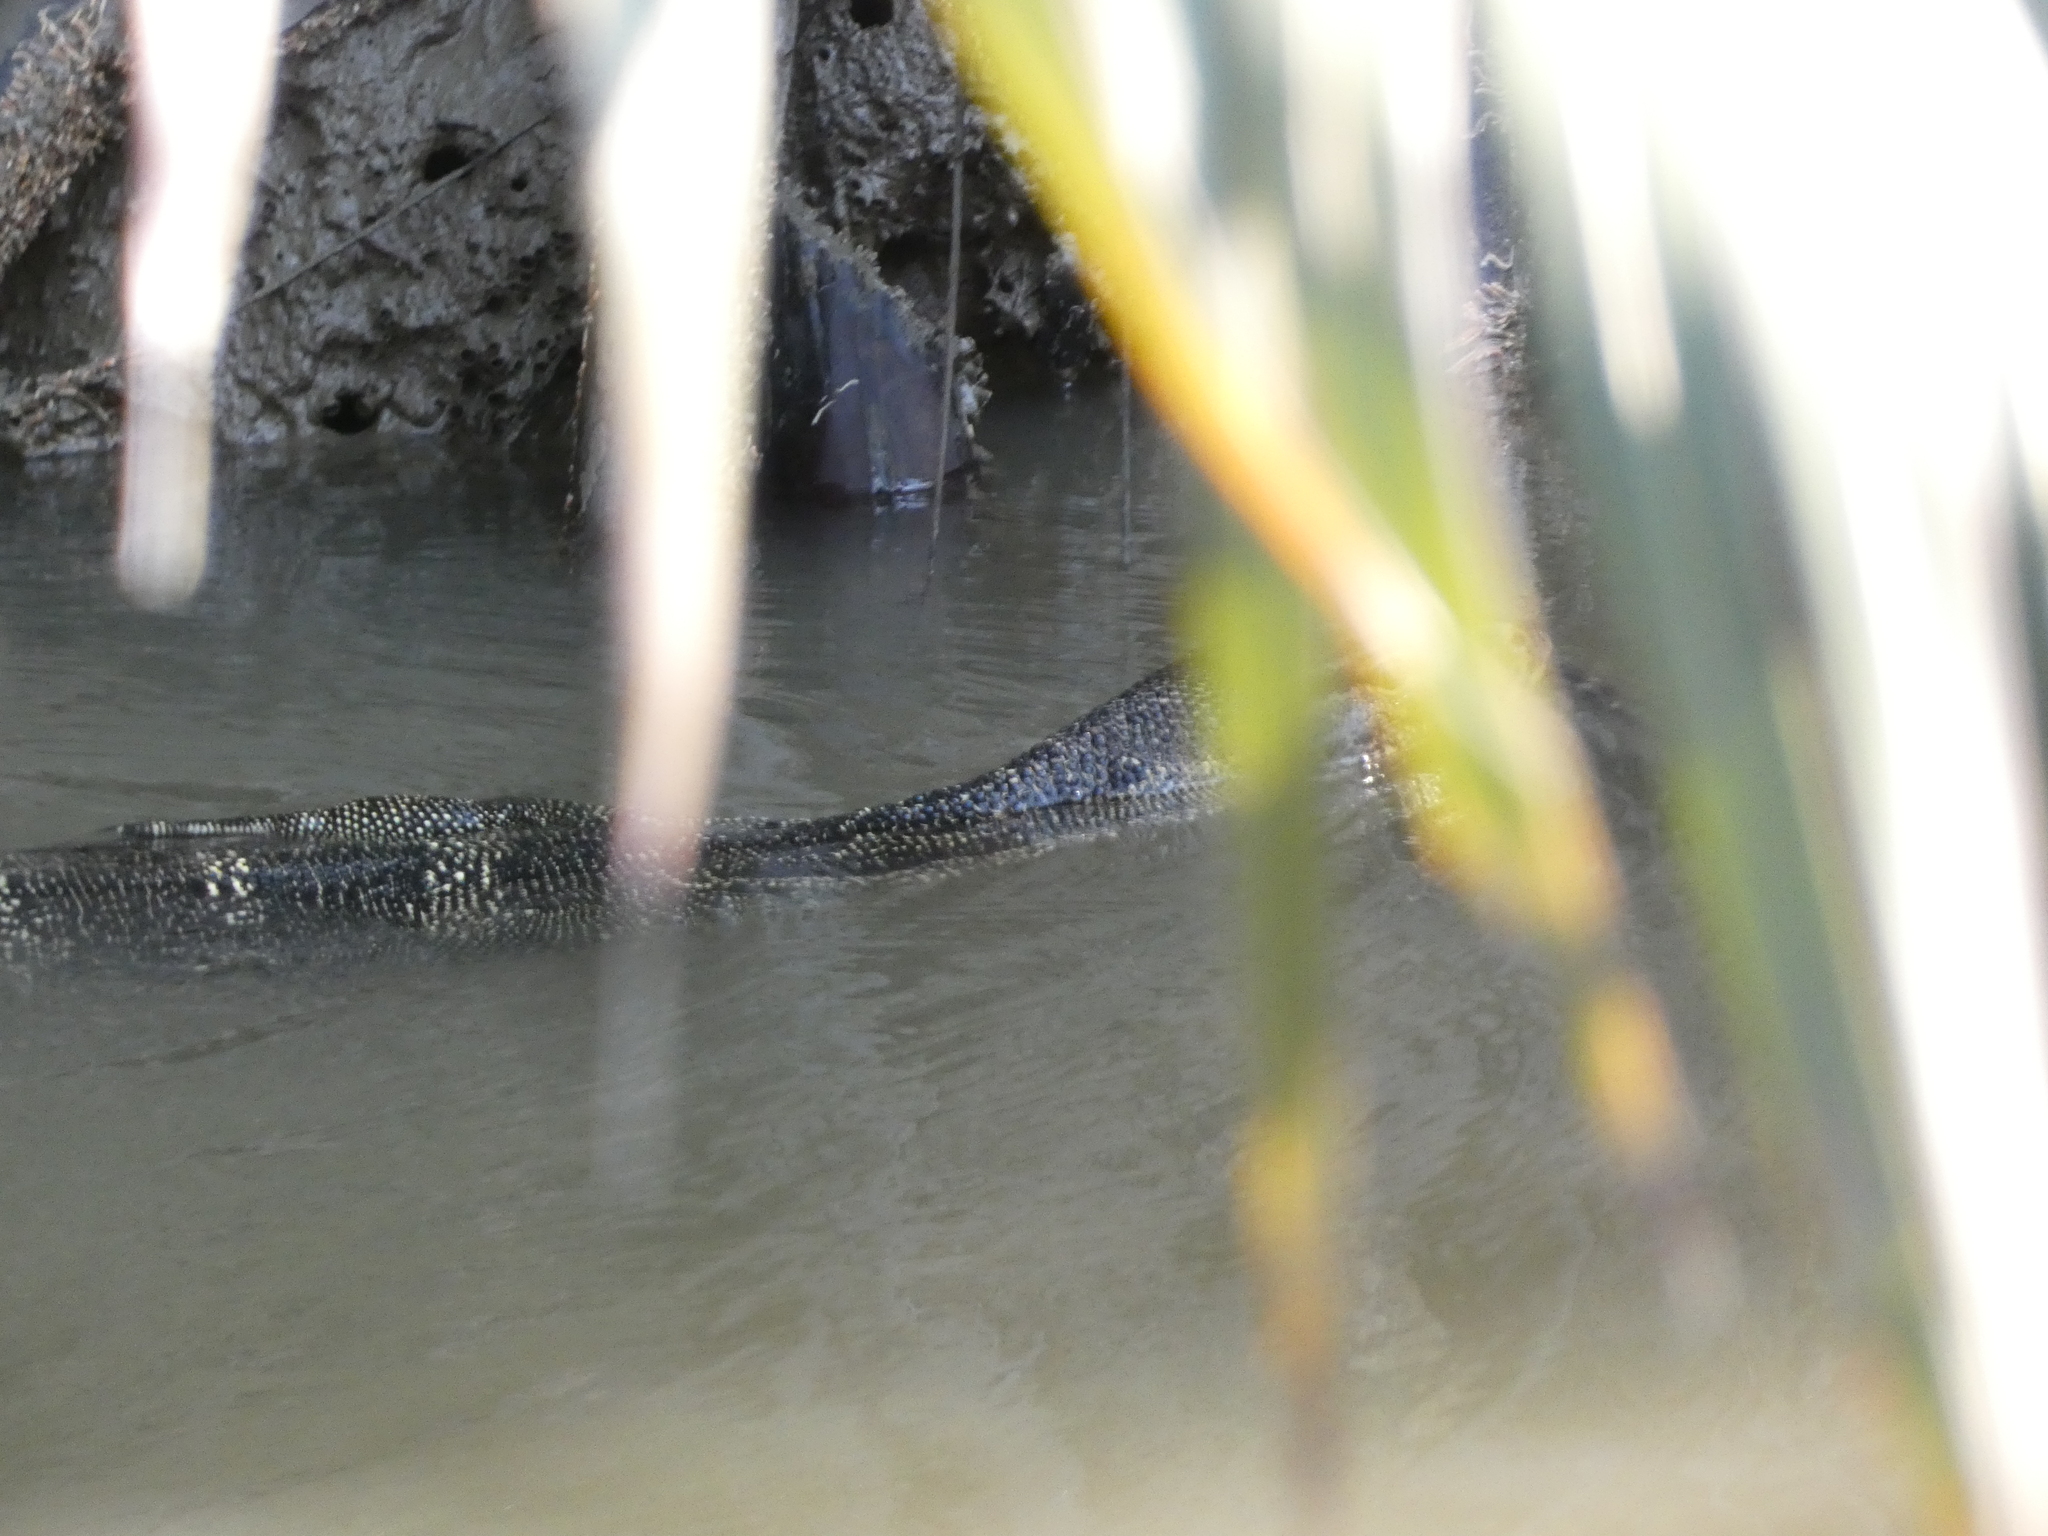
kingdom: Animalia
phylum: Chordata
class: Squamata
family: Varanidae
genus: Varanus
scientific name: Varanus salvator
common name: Common water monitor
